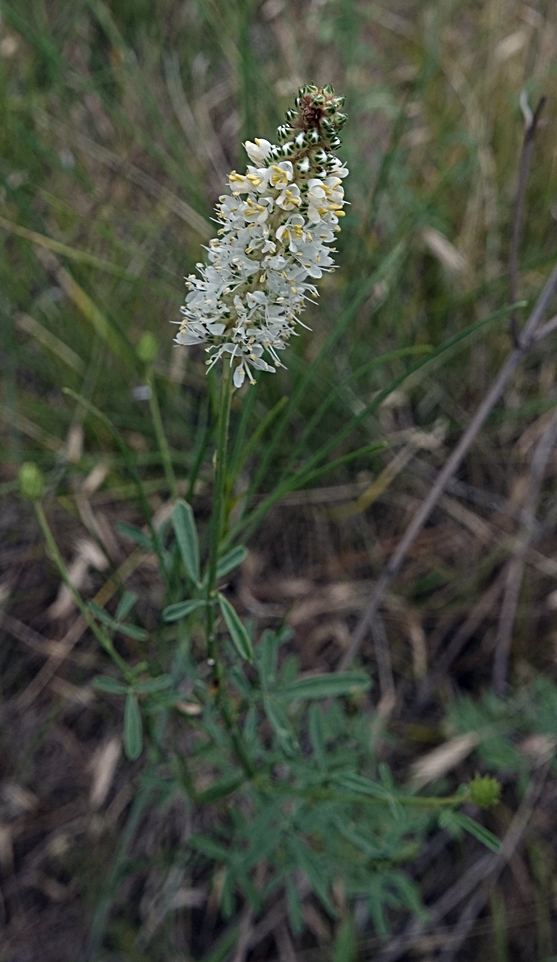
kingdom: Plantae
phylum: Tracheophyta
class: Magnoliopsida
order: Fabales
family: Fabaceae
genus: Dalea
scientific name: Dalea candida
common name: White prairie-clover
